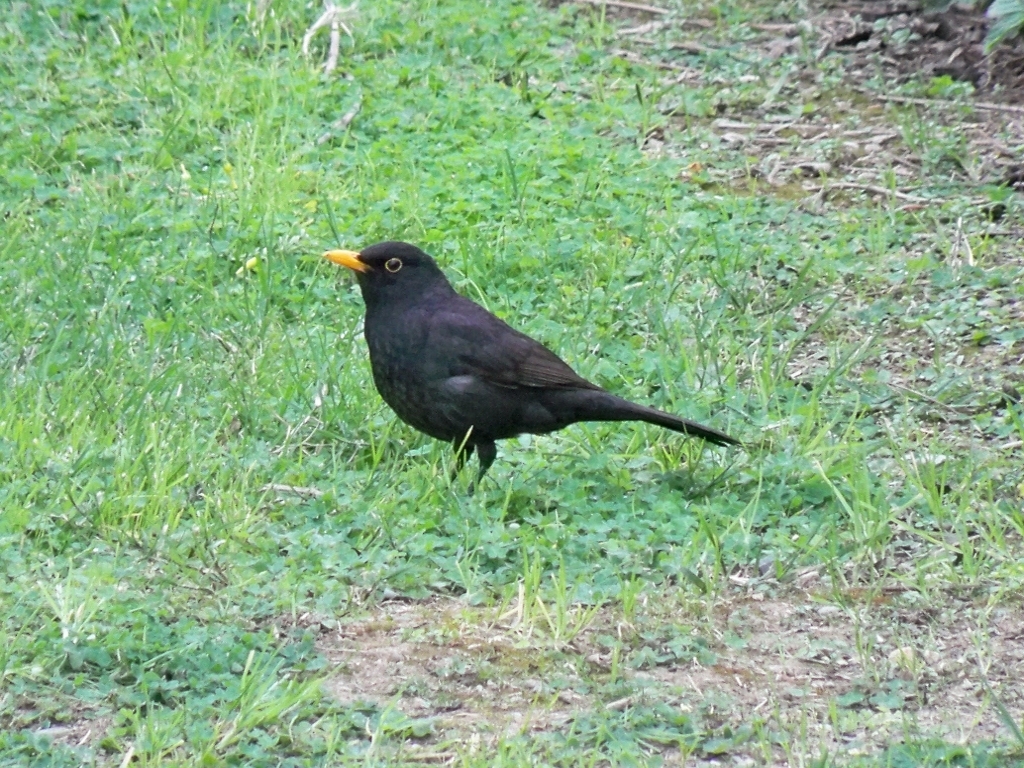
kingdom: Animalia
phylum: Chordata
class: Aves
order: Passeriformes
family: Turdidae
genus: Turdus
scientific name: Turdus merula
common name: Common blackbird
